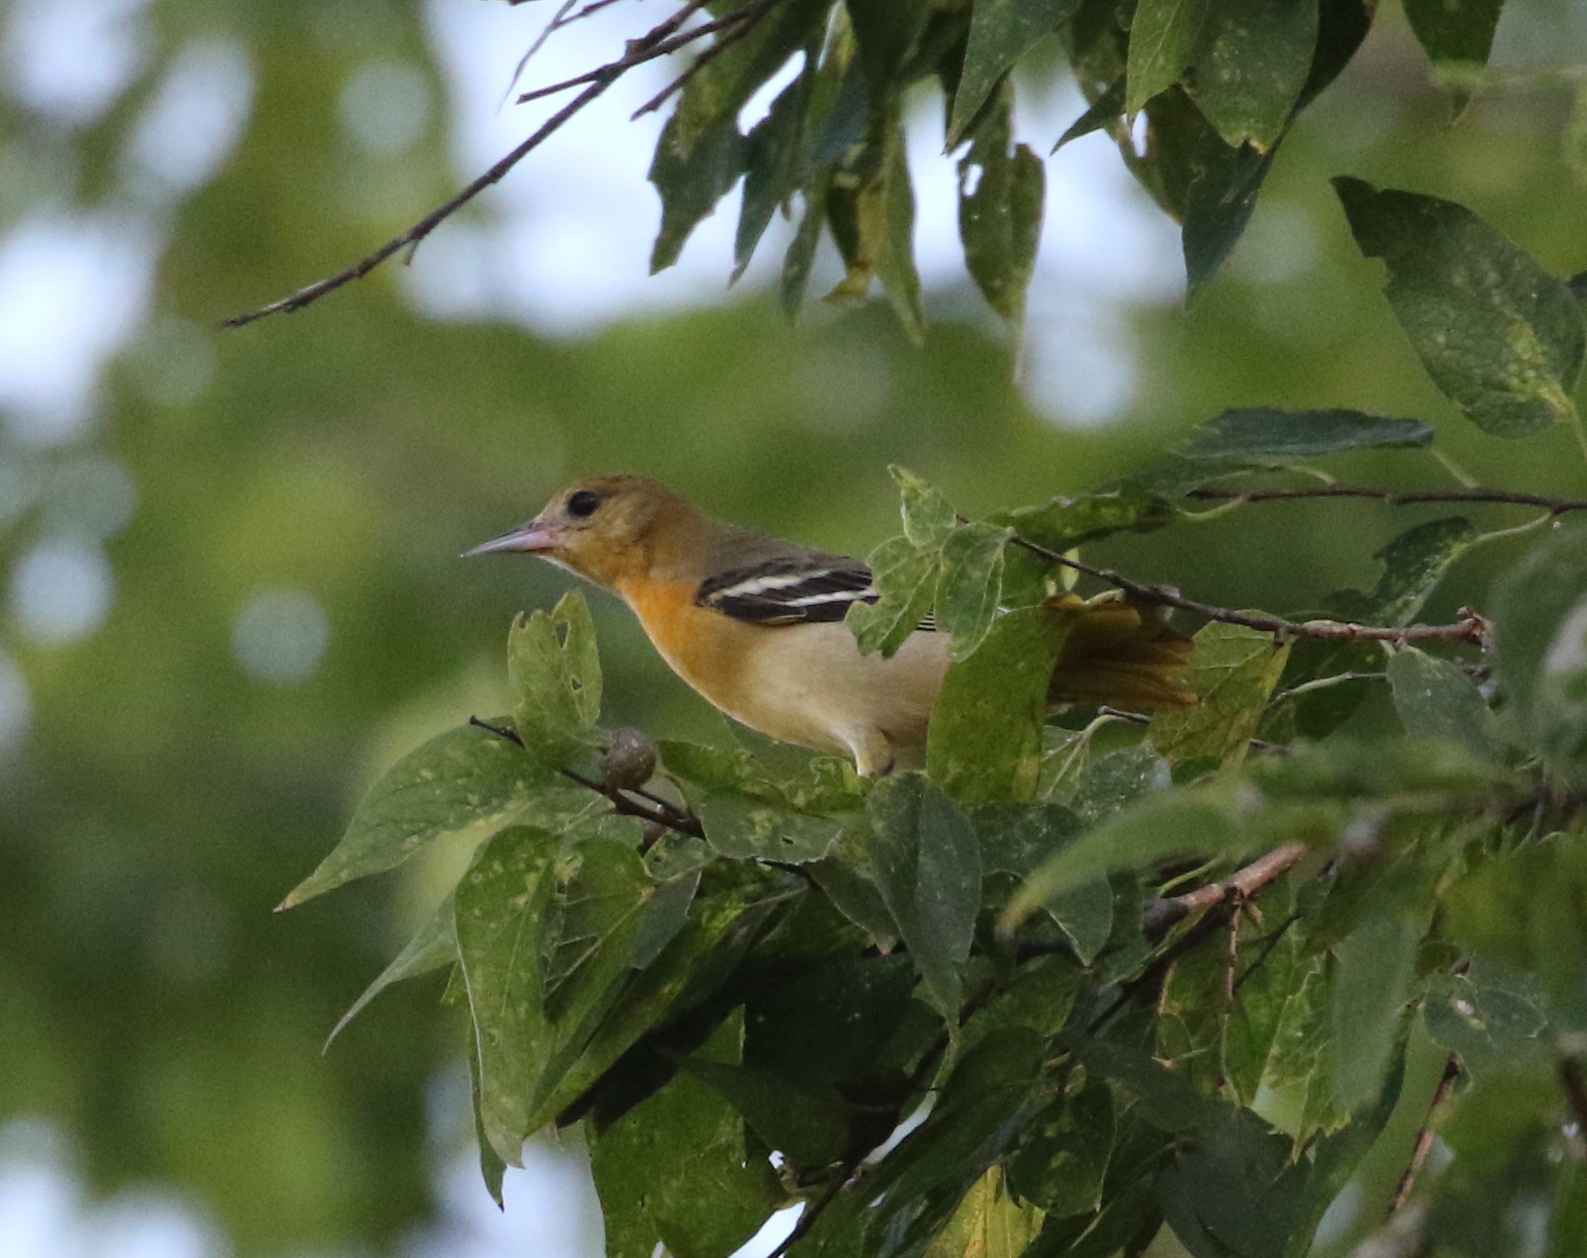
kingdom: Animalia
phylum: Chordata
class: Aves
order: Passeriformes
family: Icteridae
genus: Icterus
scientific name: Icterus galbula
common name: Baltimore oriole
